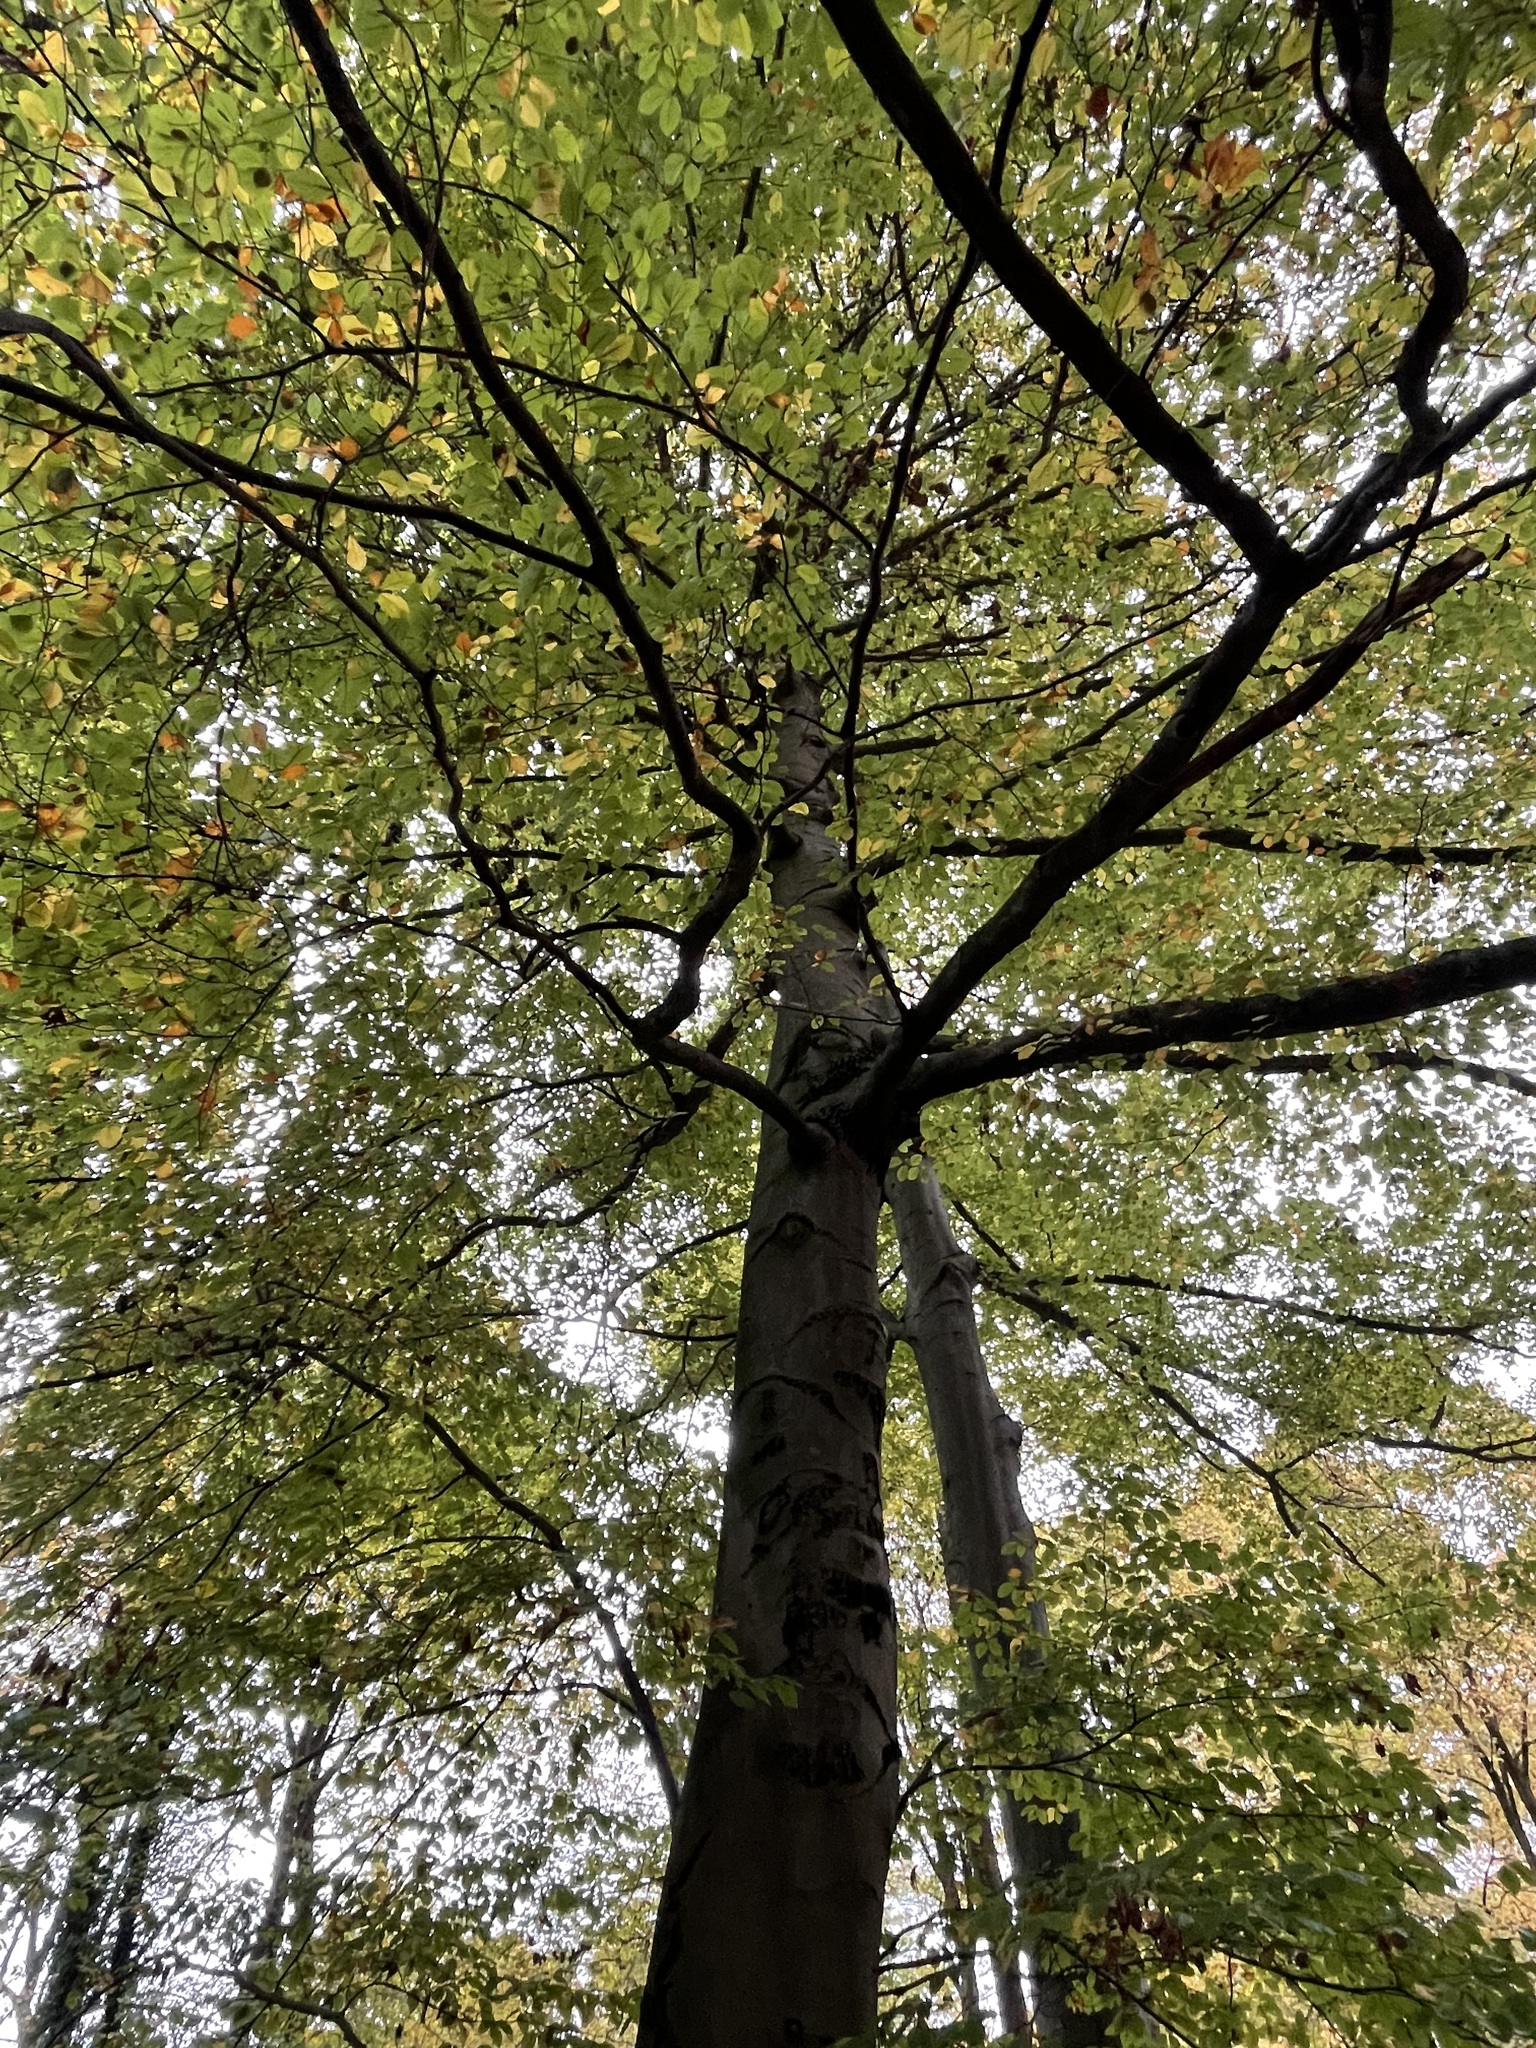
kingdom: Plantae
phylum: Tracheophyta
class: Magnoliopsida
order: Fagales
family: Fagaceae
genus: Fagus
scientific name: Fagus sylvatica
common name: Beech
